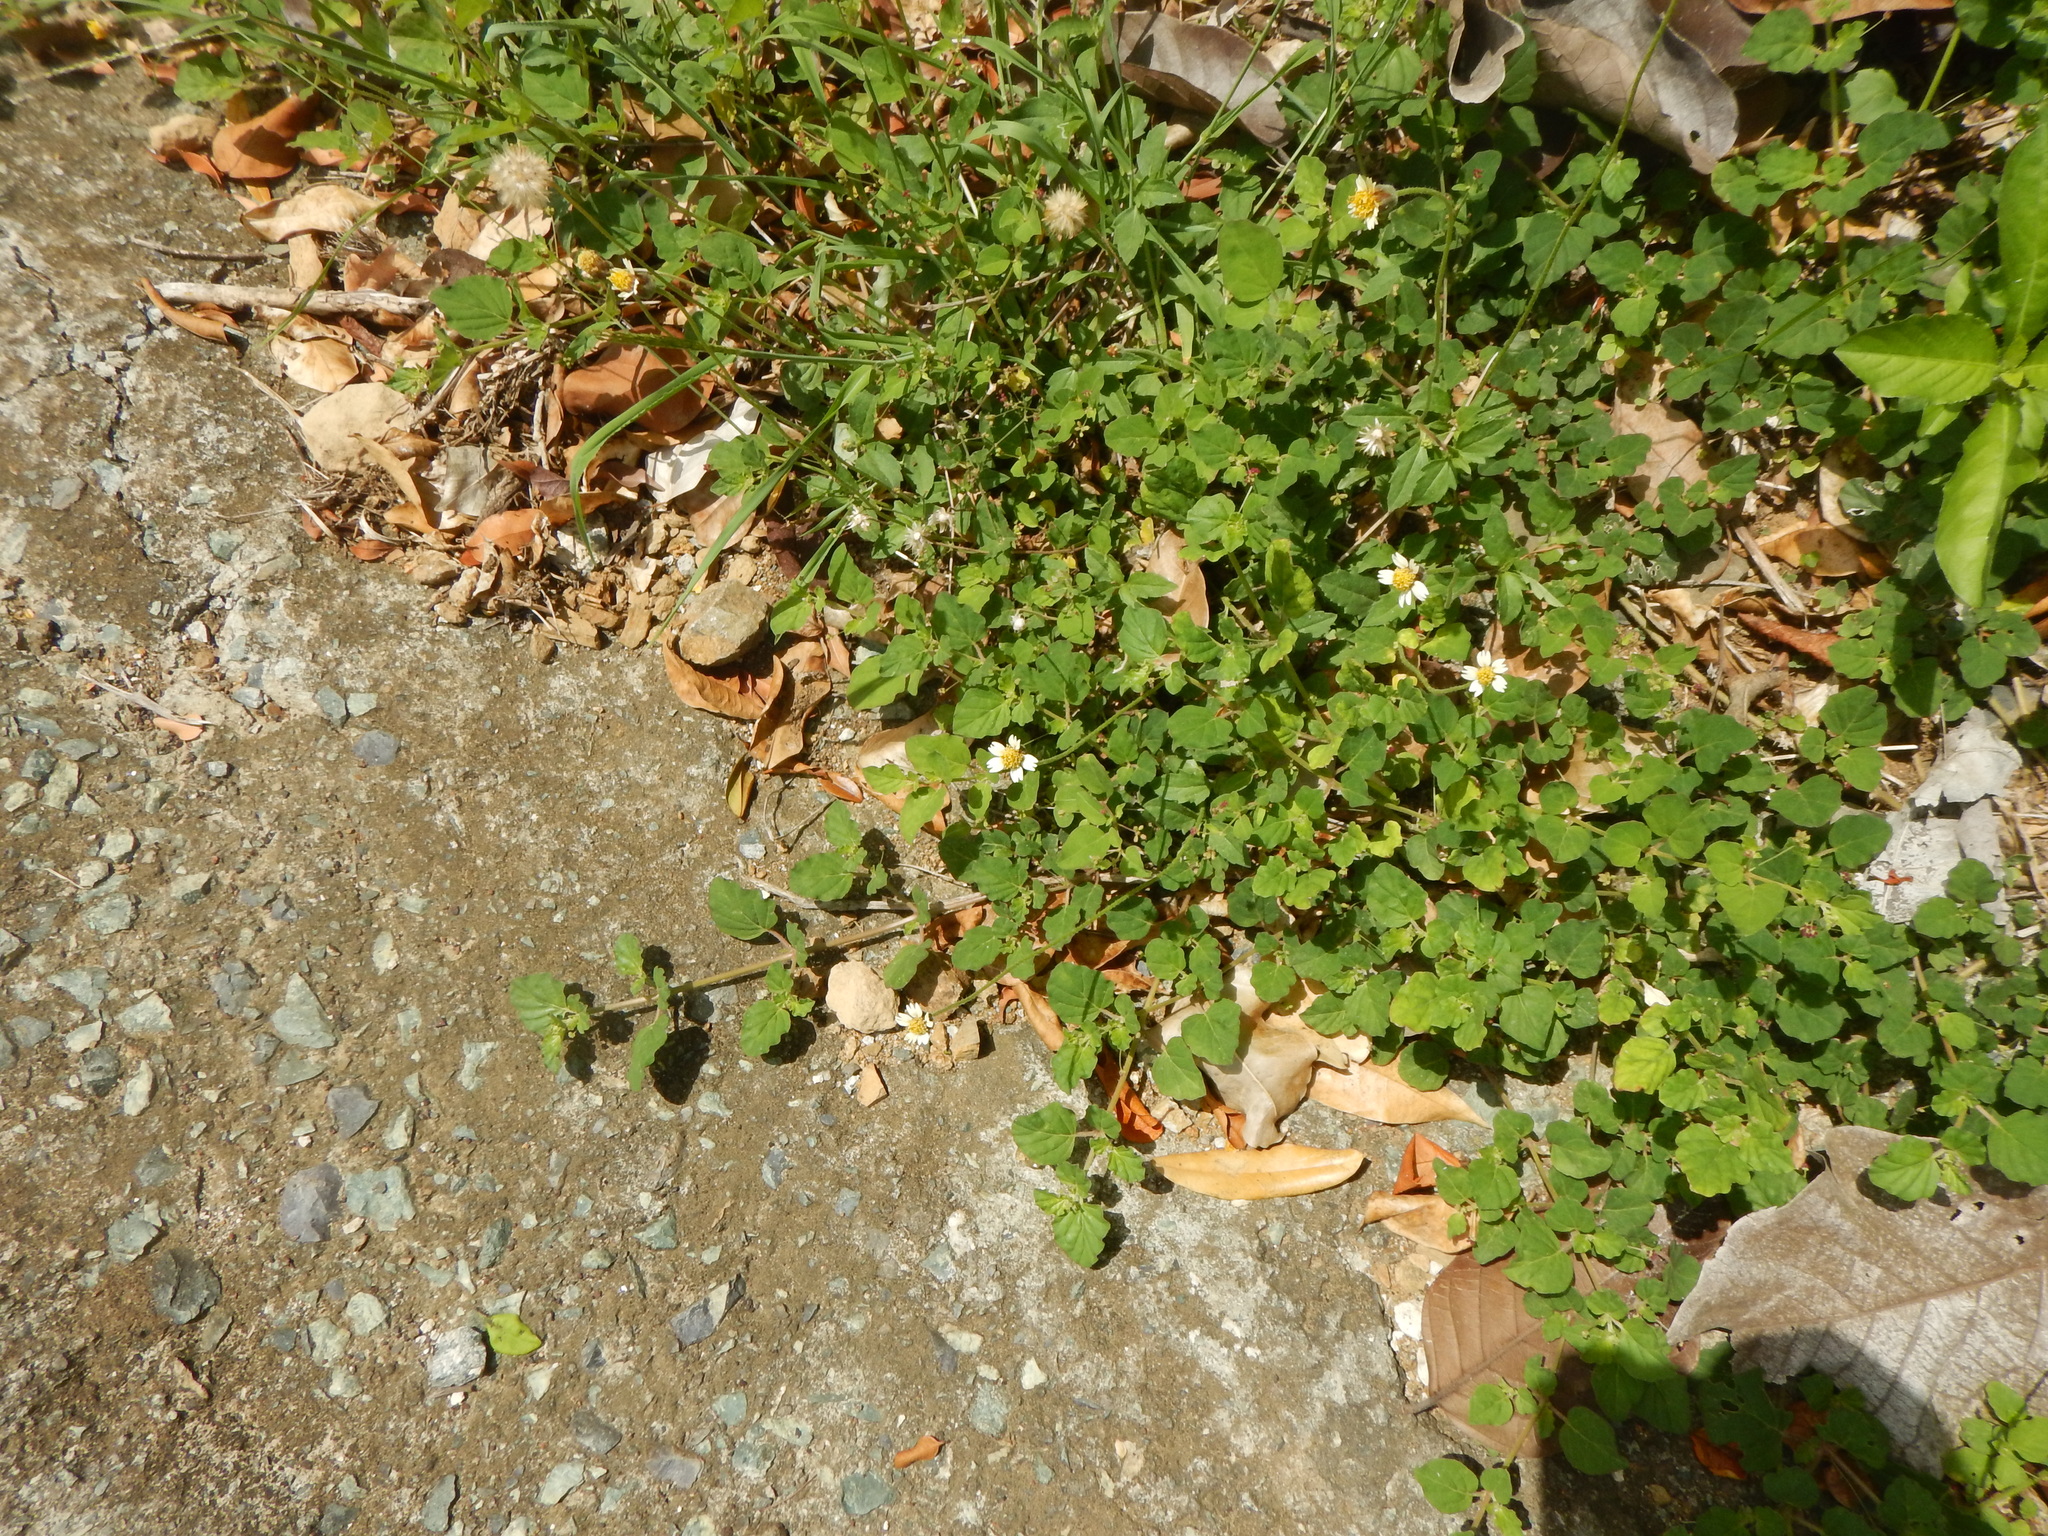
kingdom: Plantae
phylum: Tracheophyta
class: Magnoliopsida
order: Asterales
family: Asteraceae
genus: Tridax
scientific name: Tridax procumbens
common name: Coatbuttons
